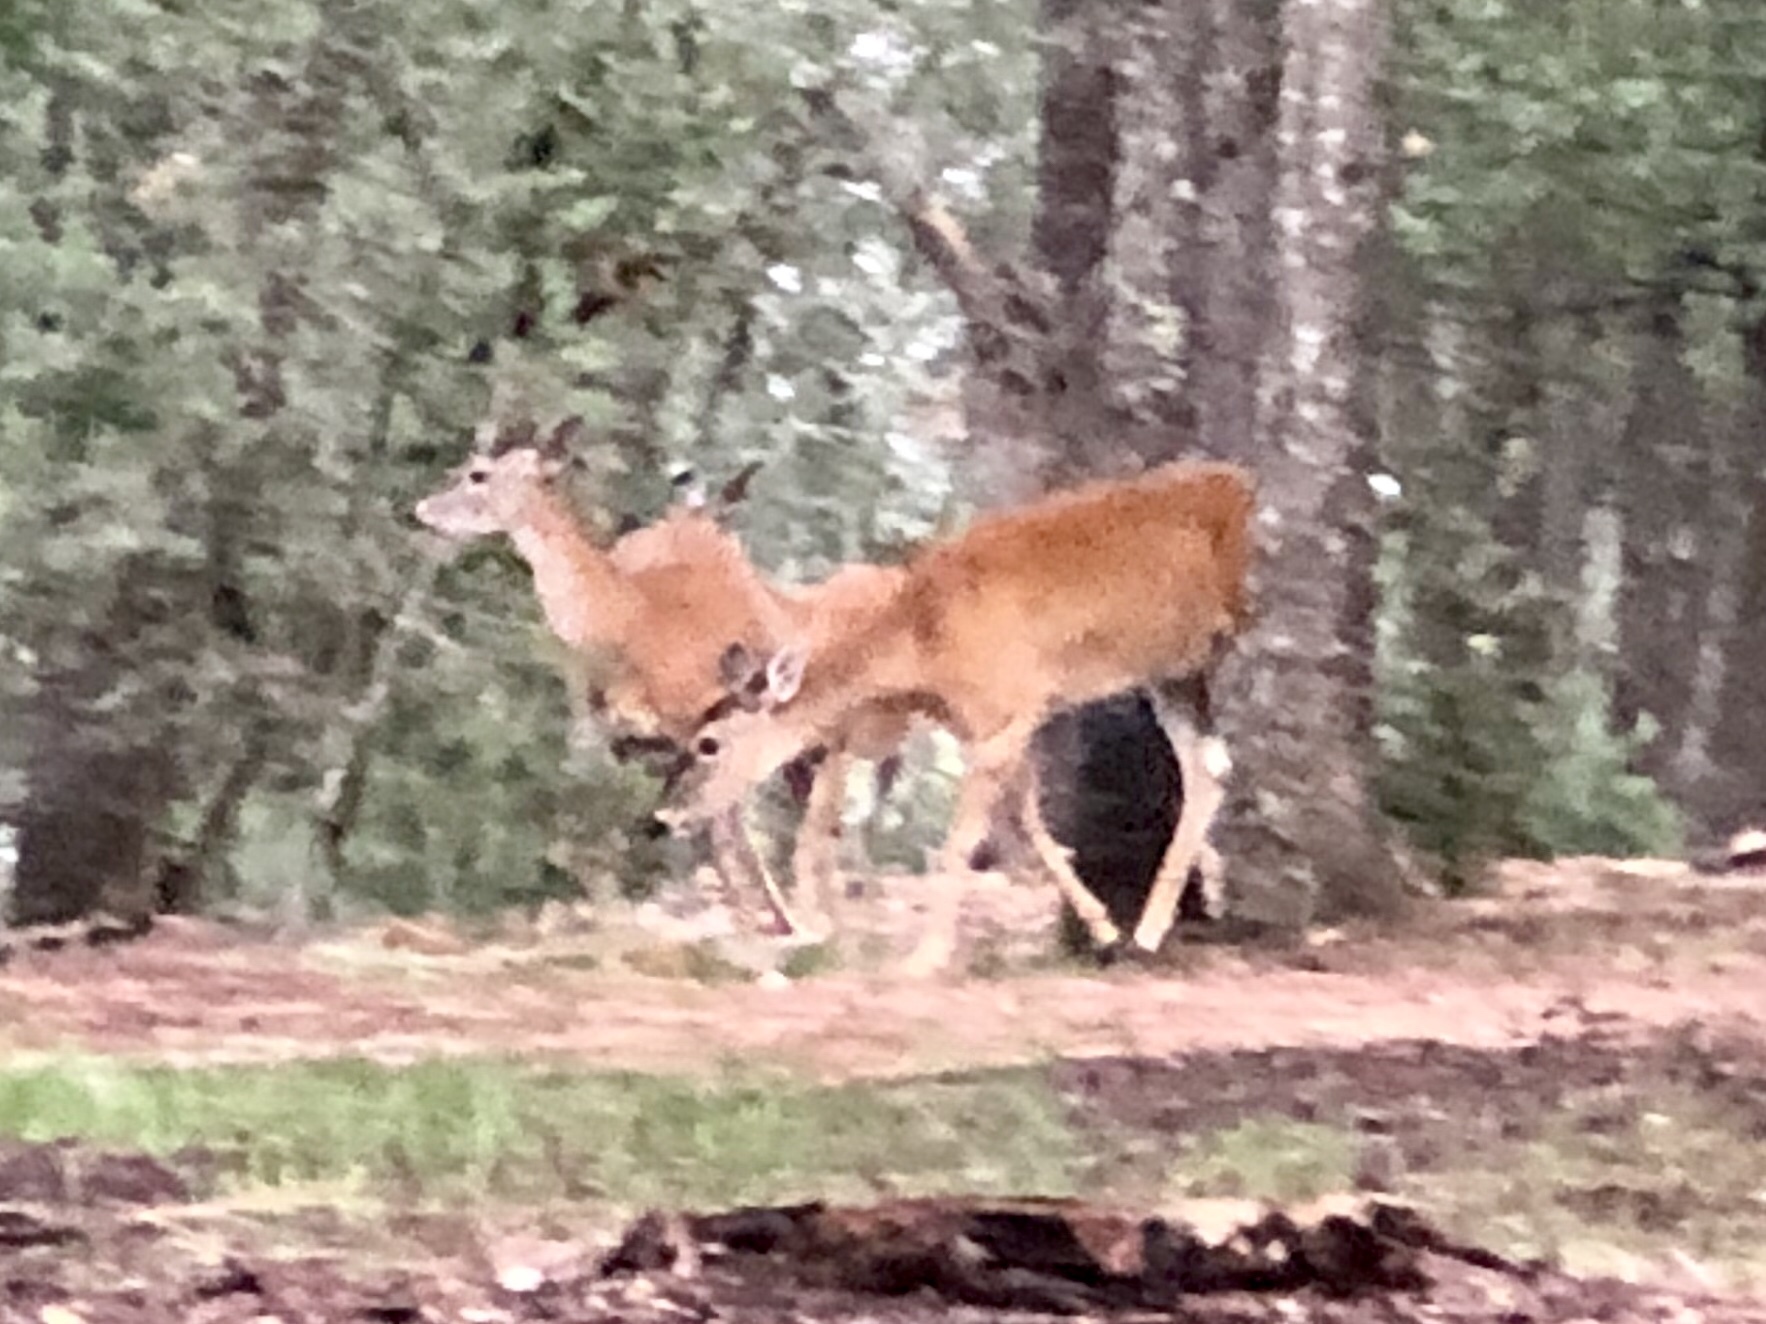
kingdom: Animalia
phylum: Chordata
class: Mammalia
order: Artiodactyla
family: Cervidae
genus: Odocoileus
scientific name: Odocoileus virginianus
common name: White-tailed deer
